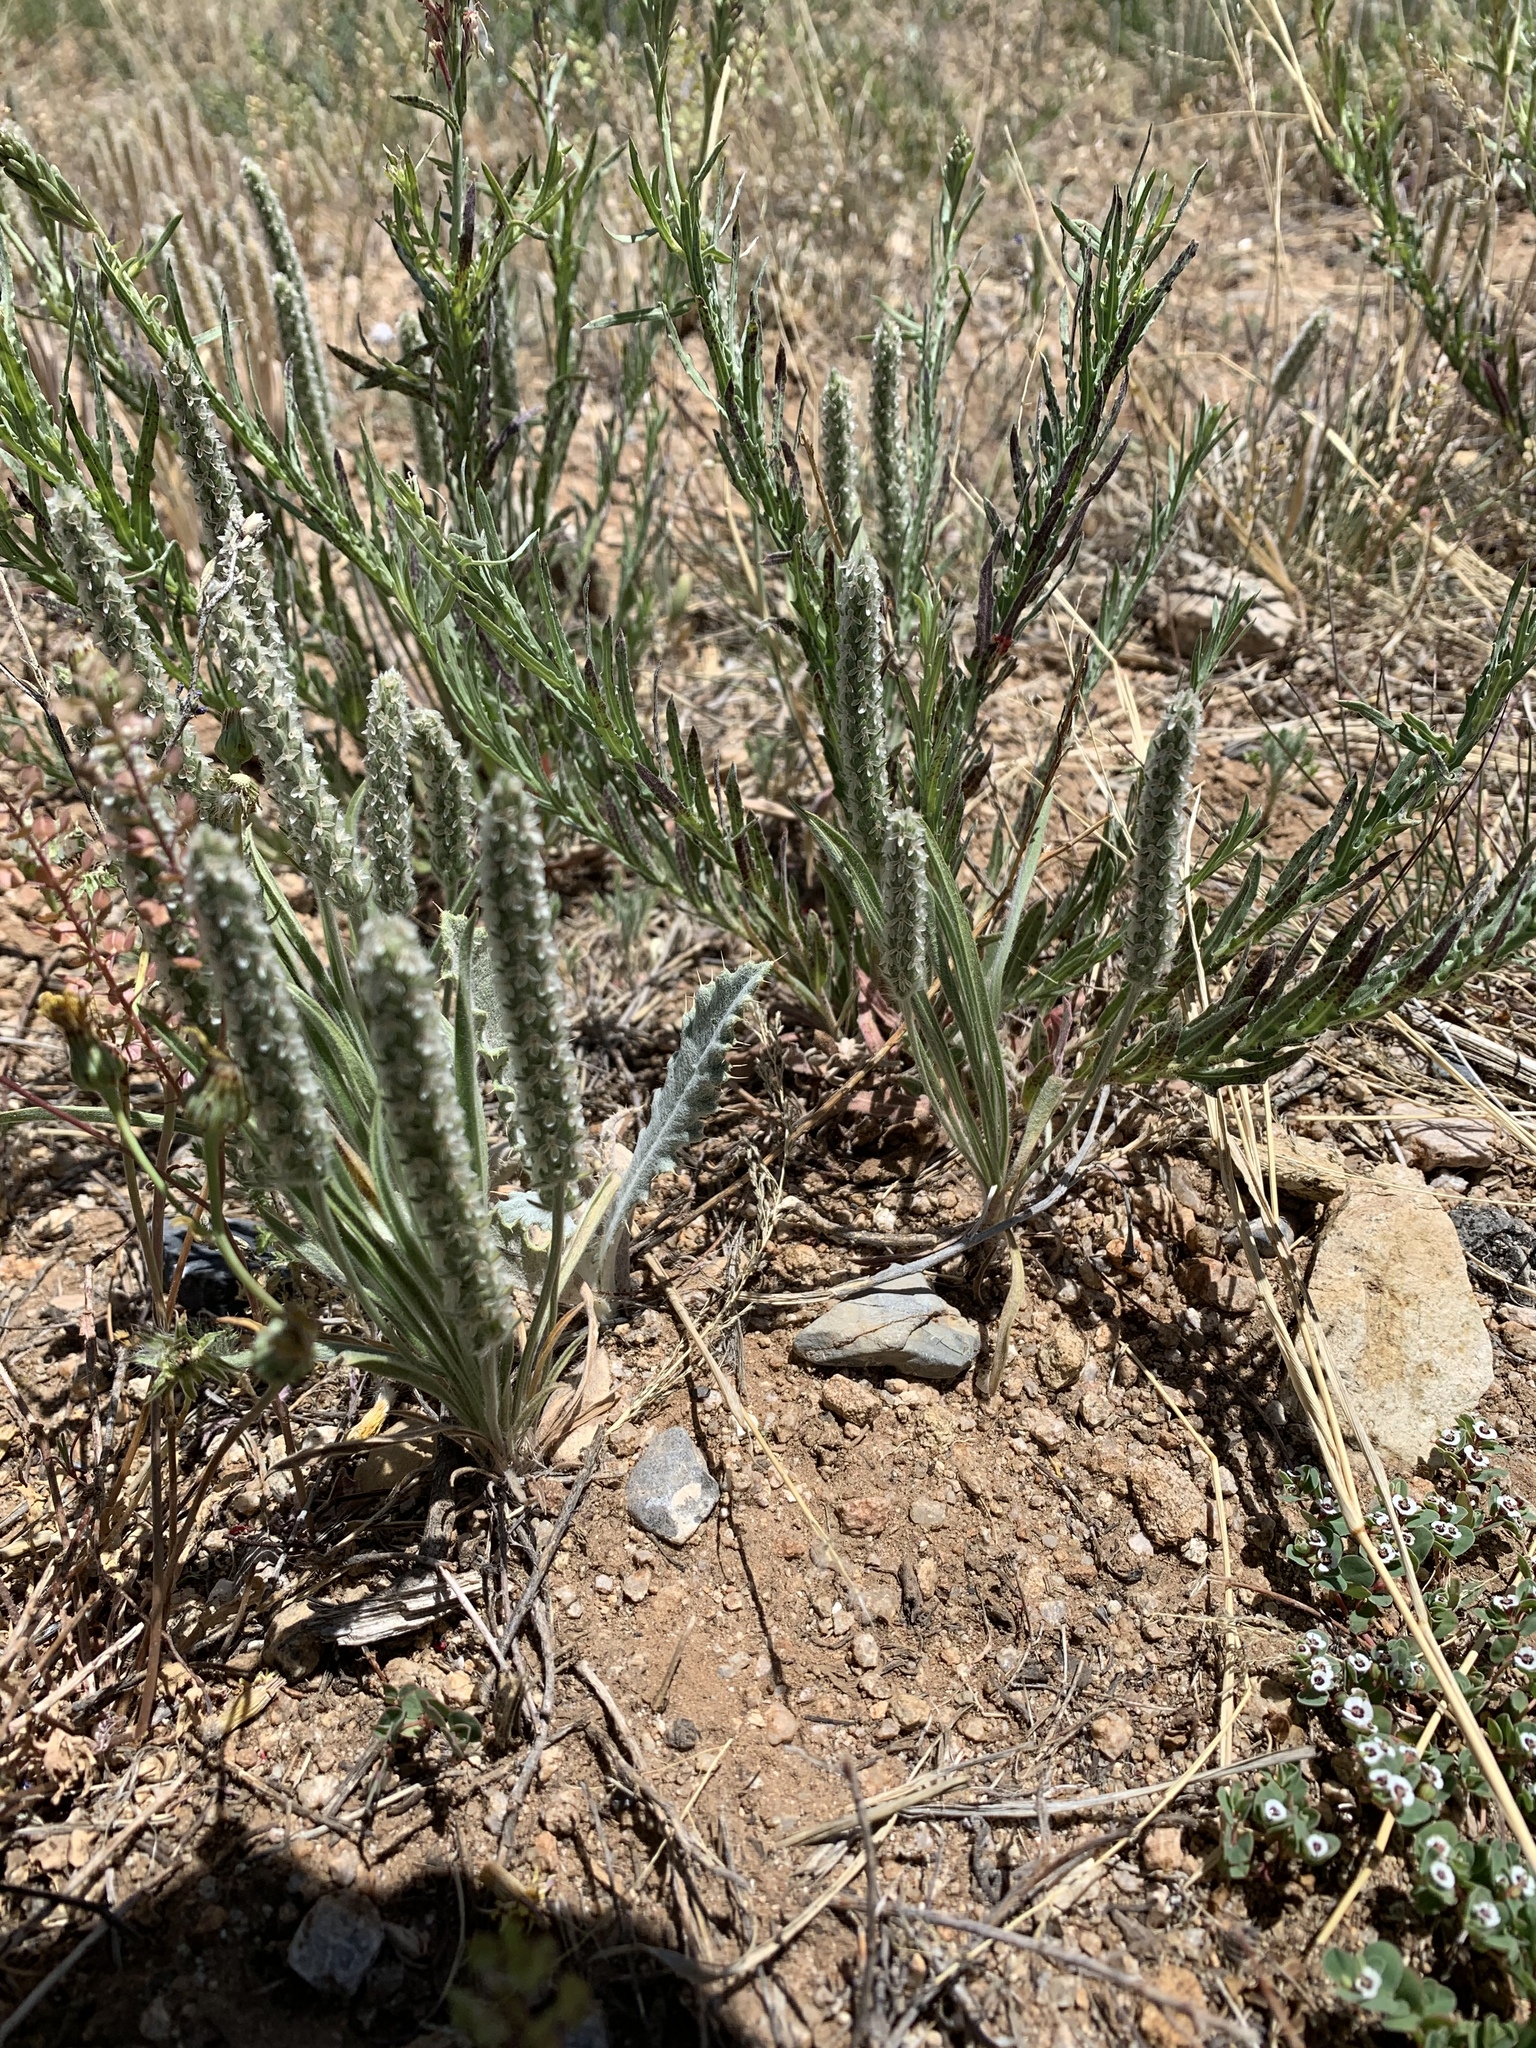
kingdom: Plantae
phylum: Tracheophyta
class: Magnoliopsida
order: Lamiales
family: Plantaginaceae
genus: Plantago
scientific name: Plantago patagonica
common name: Patagonia indian-wheat
